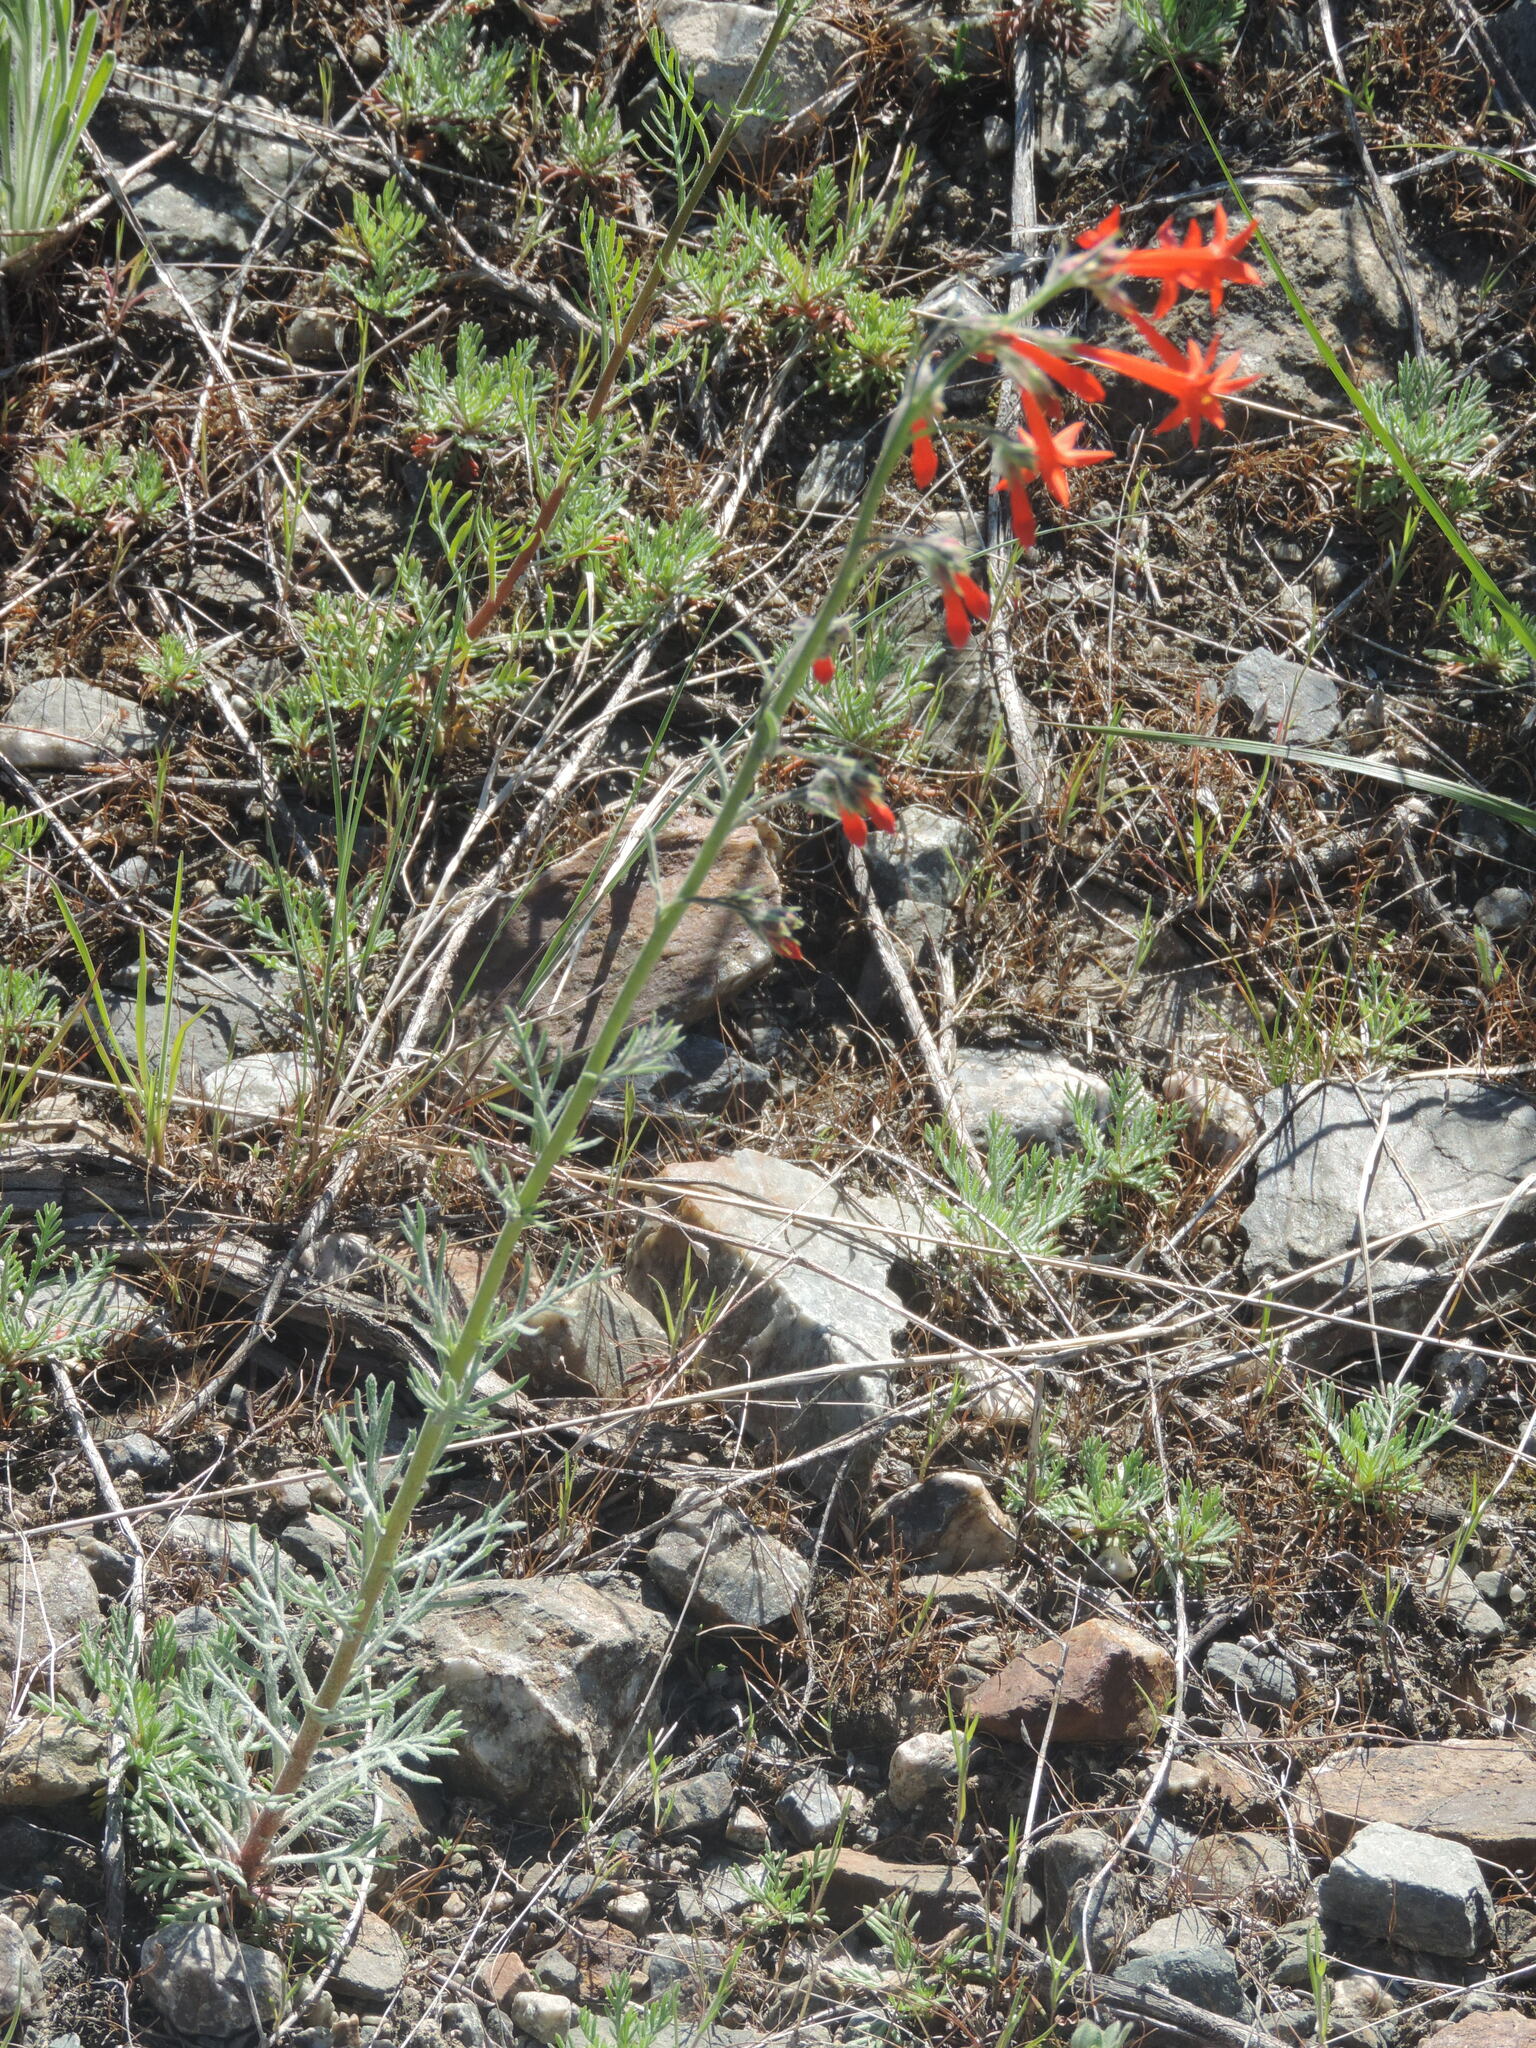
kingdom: Plantae
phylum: Tracheophyta
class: Magnoliopsida
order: Ericales
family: Polemoniaceae
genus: Ipomopsis
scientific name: Ipomopsis aggregata
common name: Scarlet gilia
